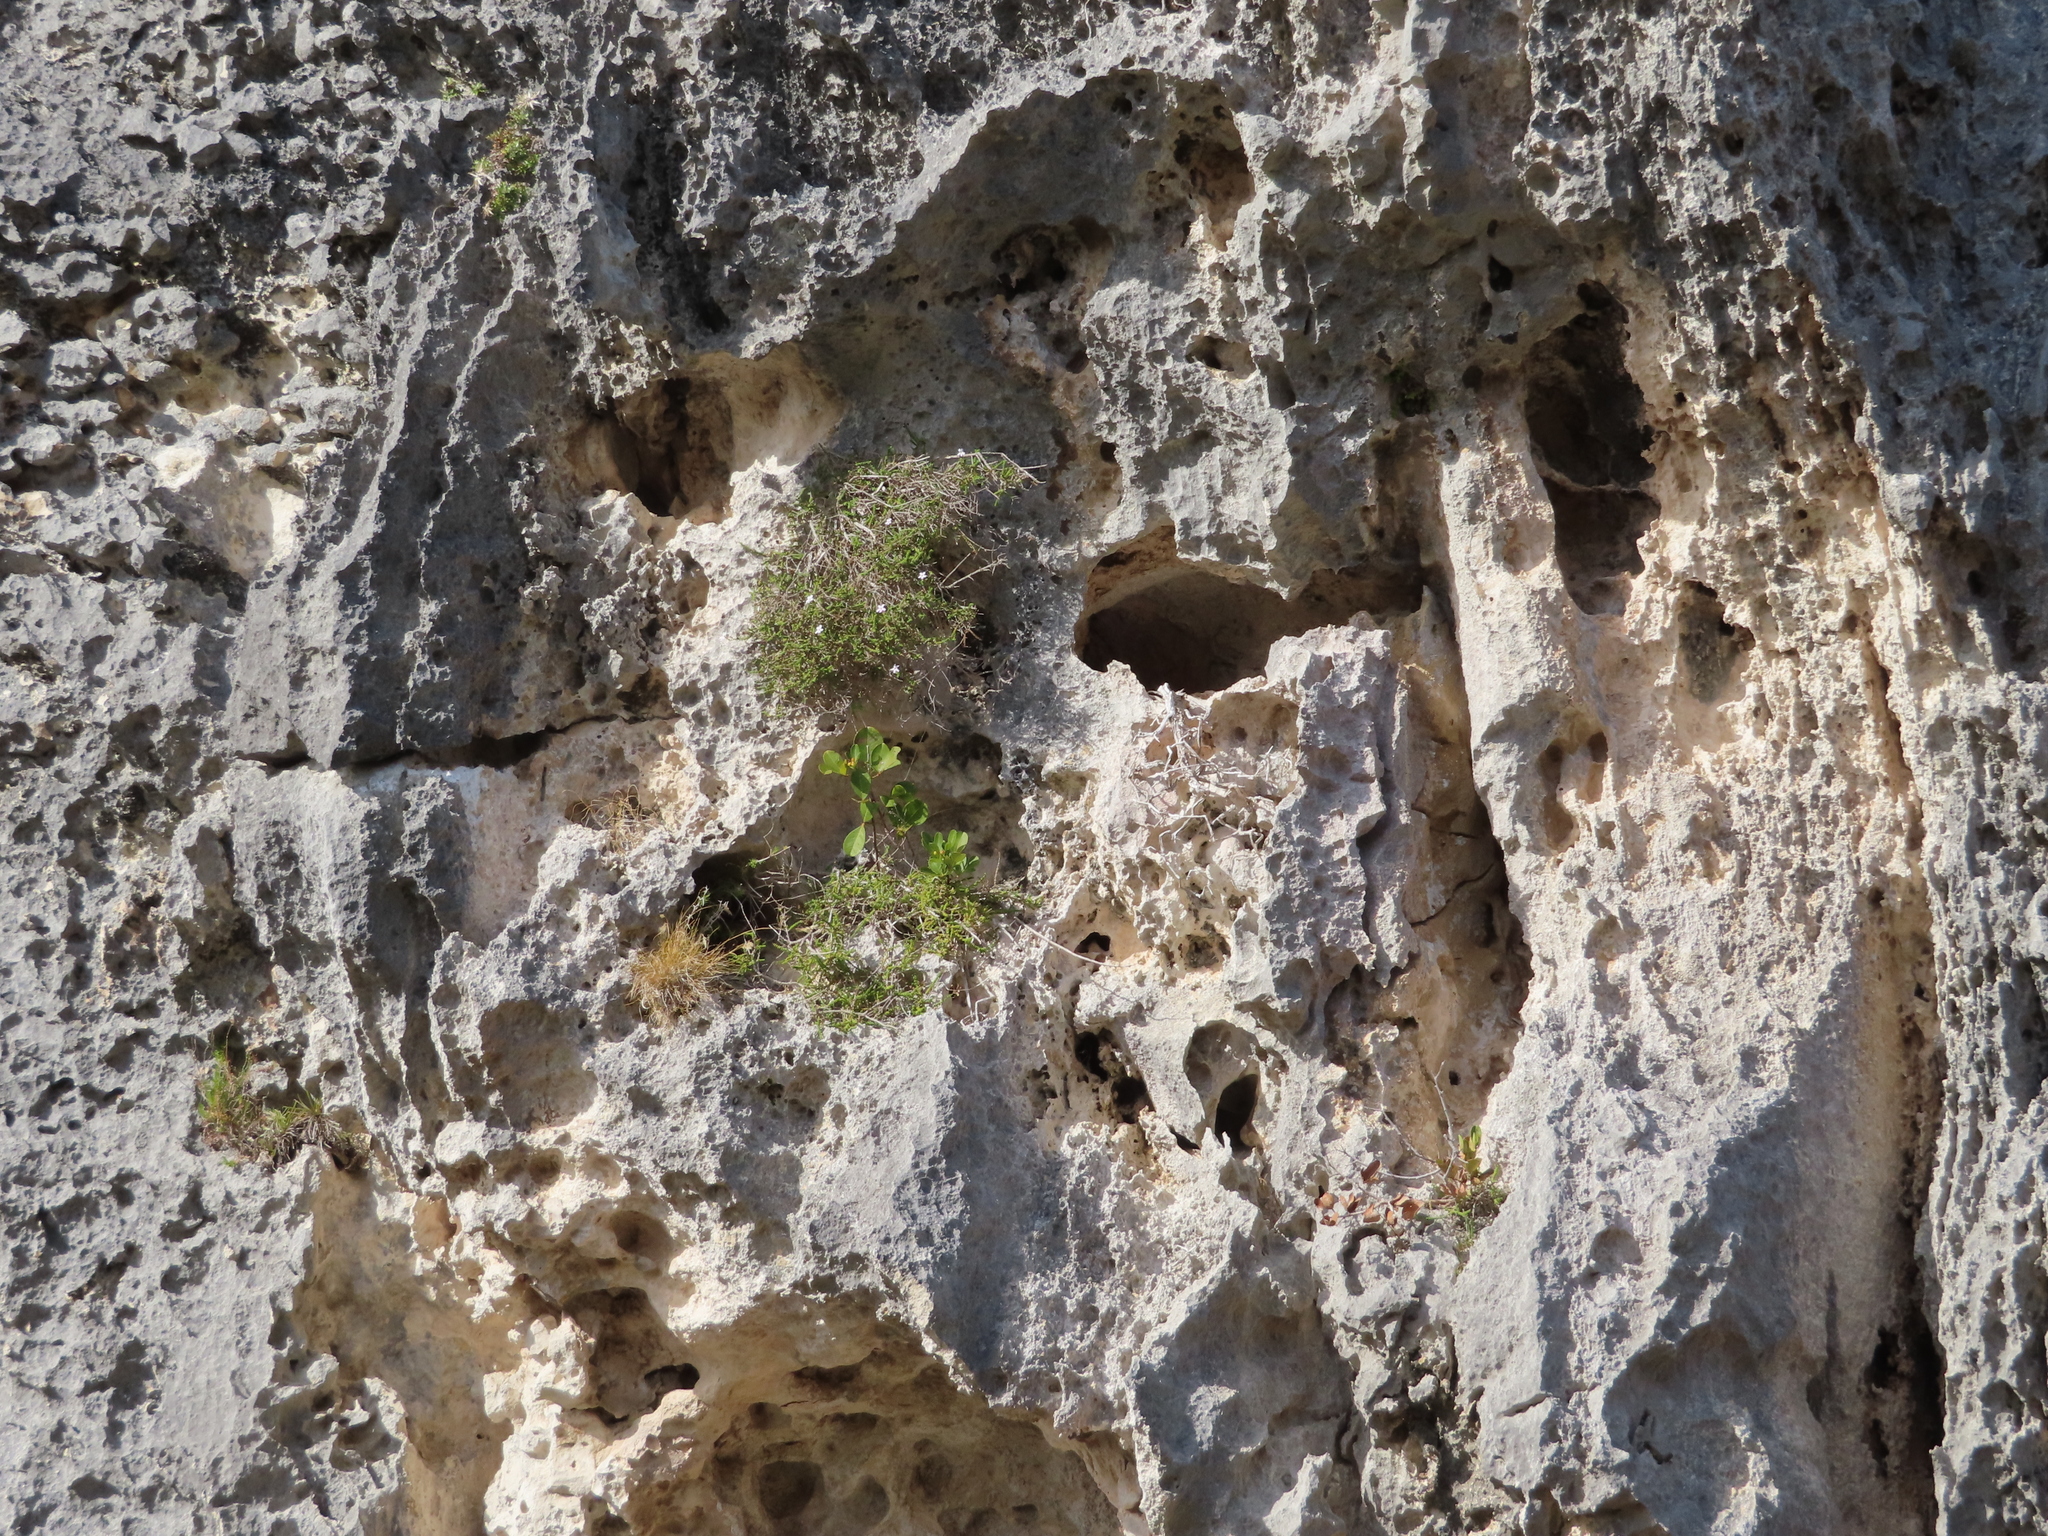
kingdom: Plantae
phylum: Tracheophyta
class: Magnoliopsida
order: Lamiales
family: Scrophulariaceae
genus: Jamesbrittenia
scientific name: Jamesbrittenia calciphila
